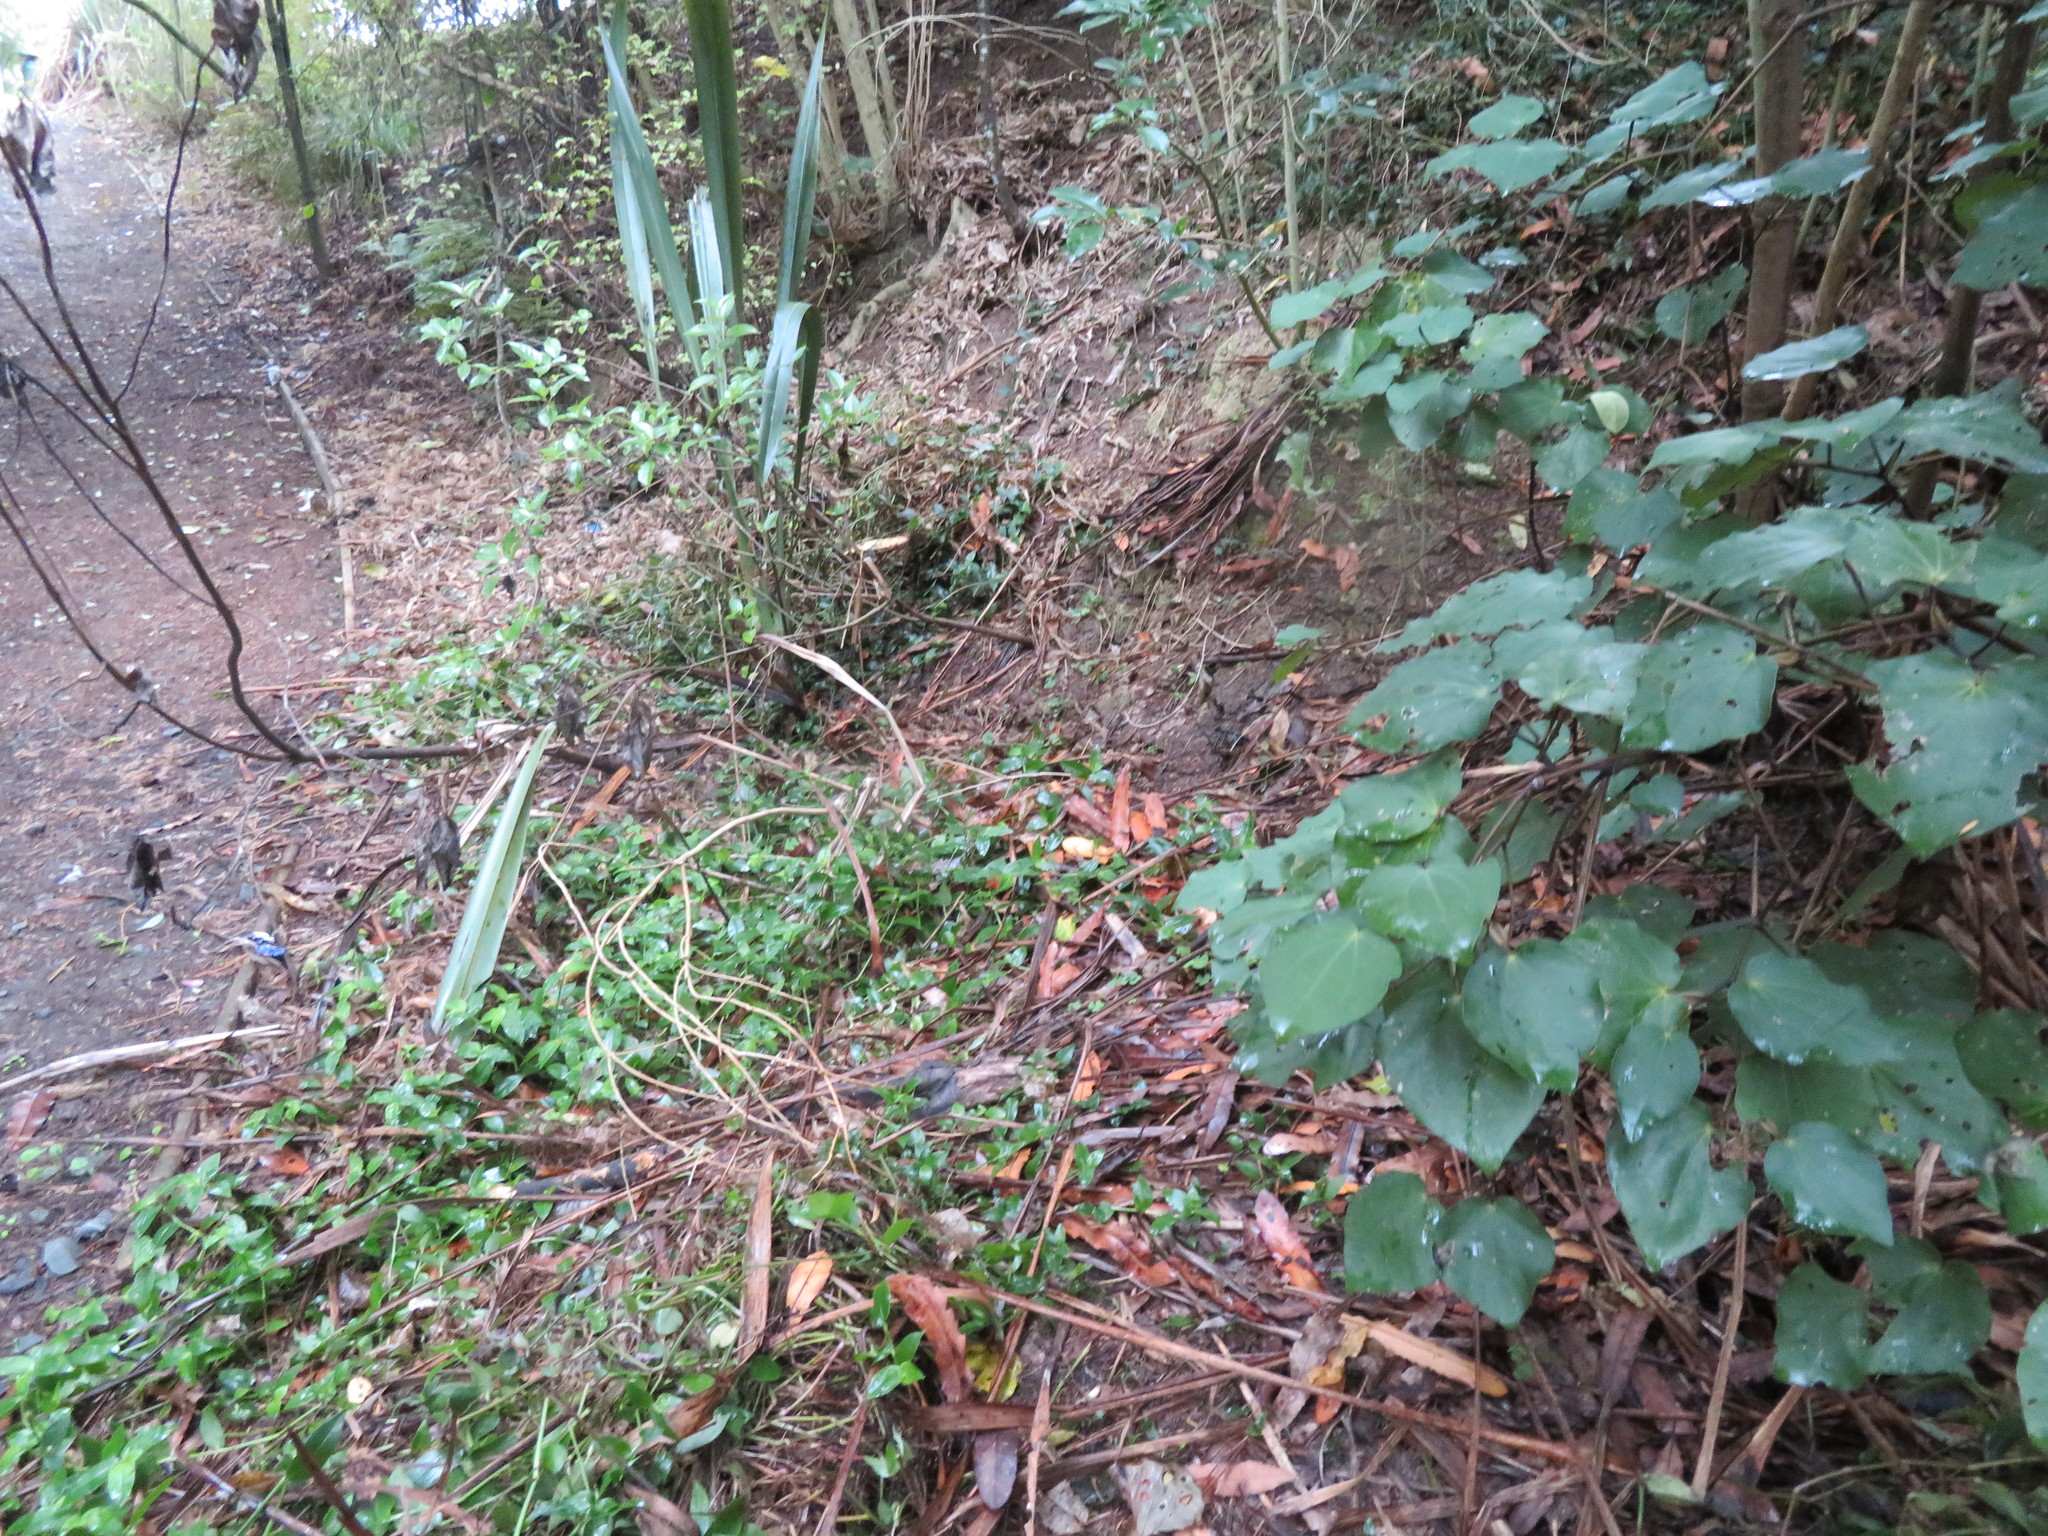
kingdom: Plantae
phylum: Tracheophyta
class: Liliopsida
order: Commelinales
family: Commelinaceae
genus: Tradescantia
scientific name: Tradescantia fluminensis
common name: Wandering-jew
